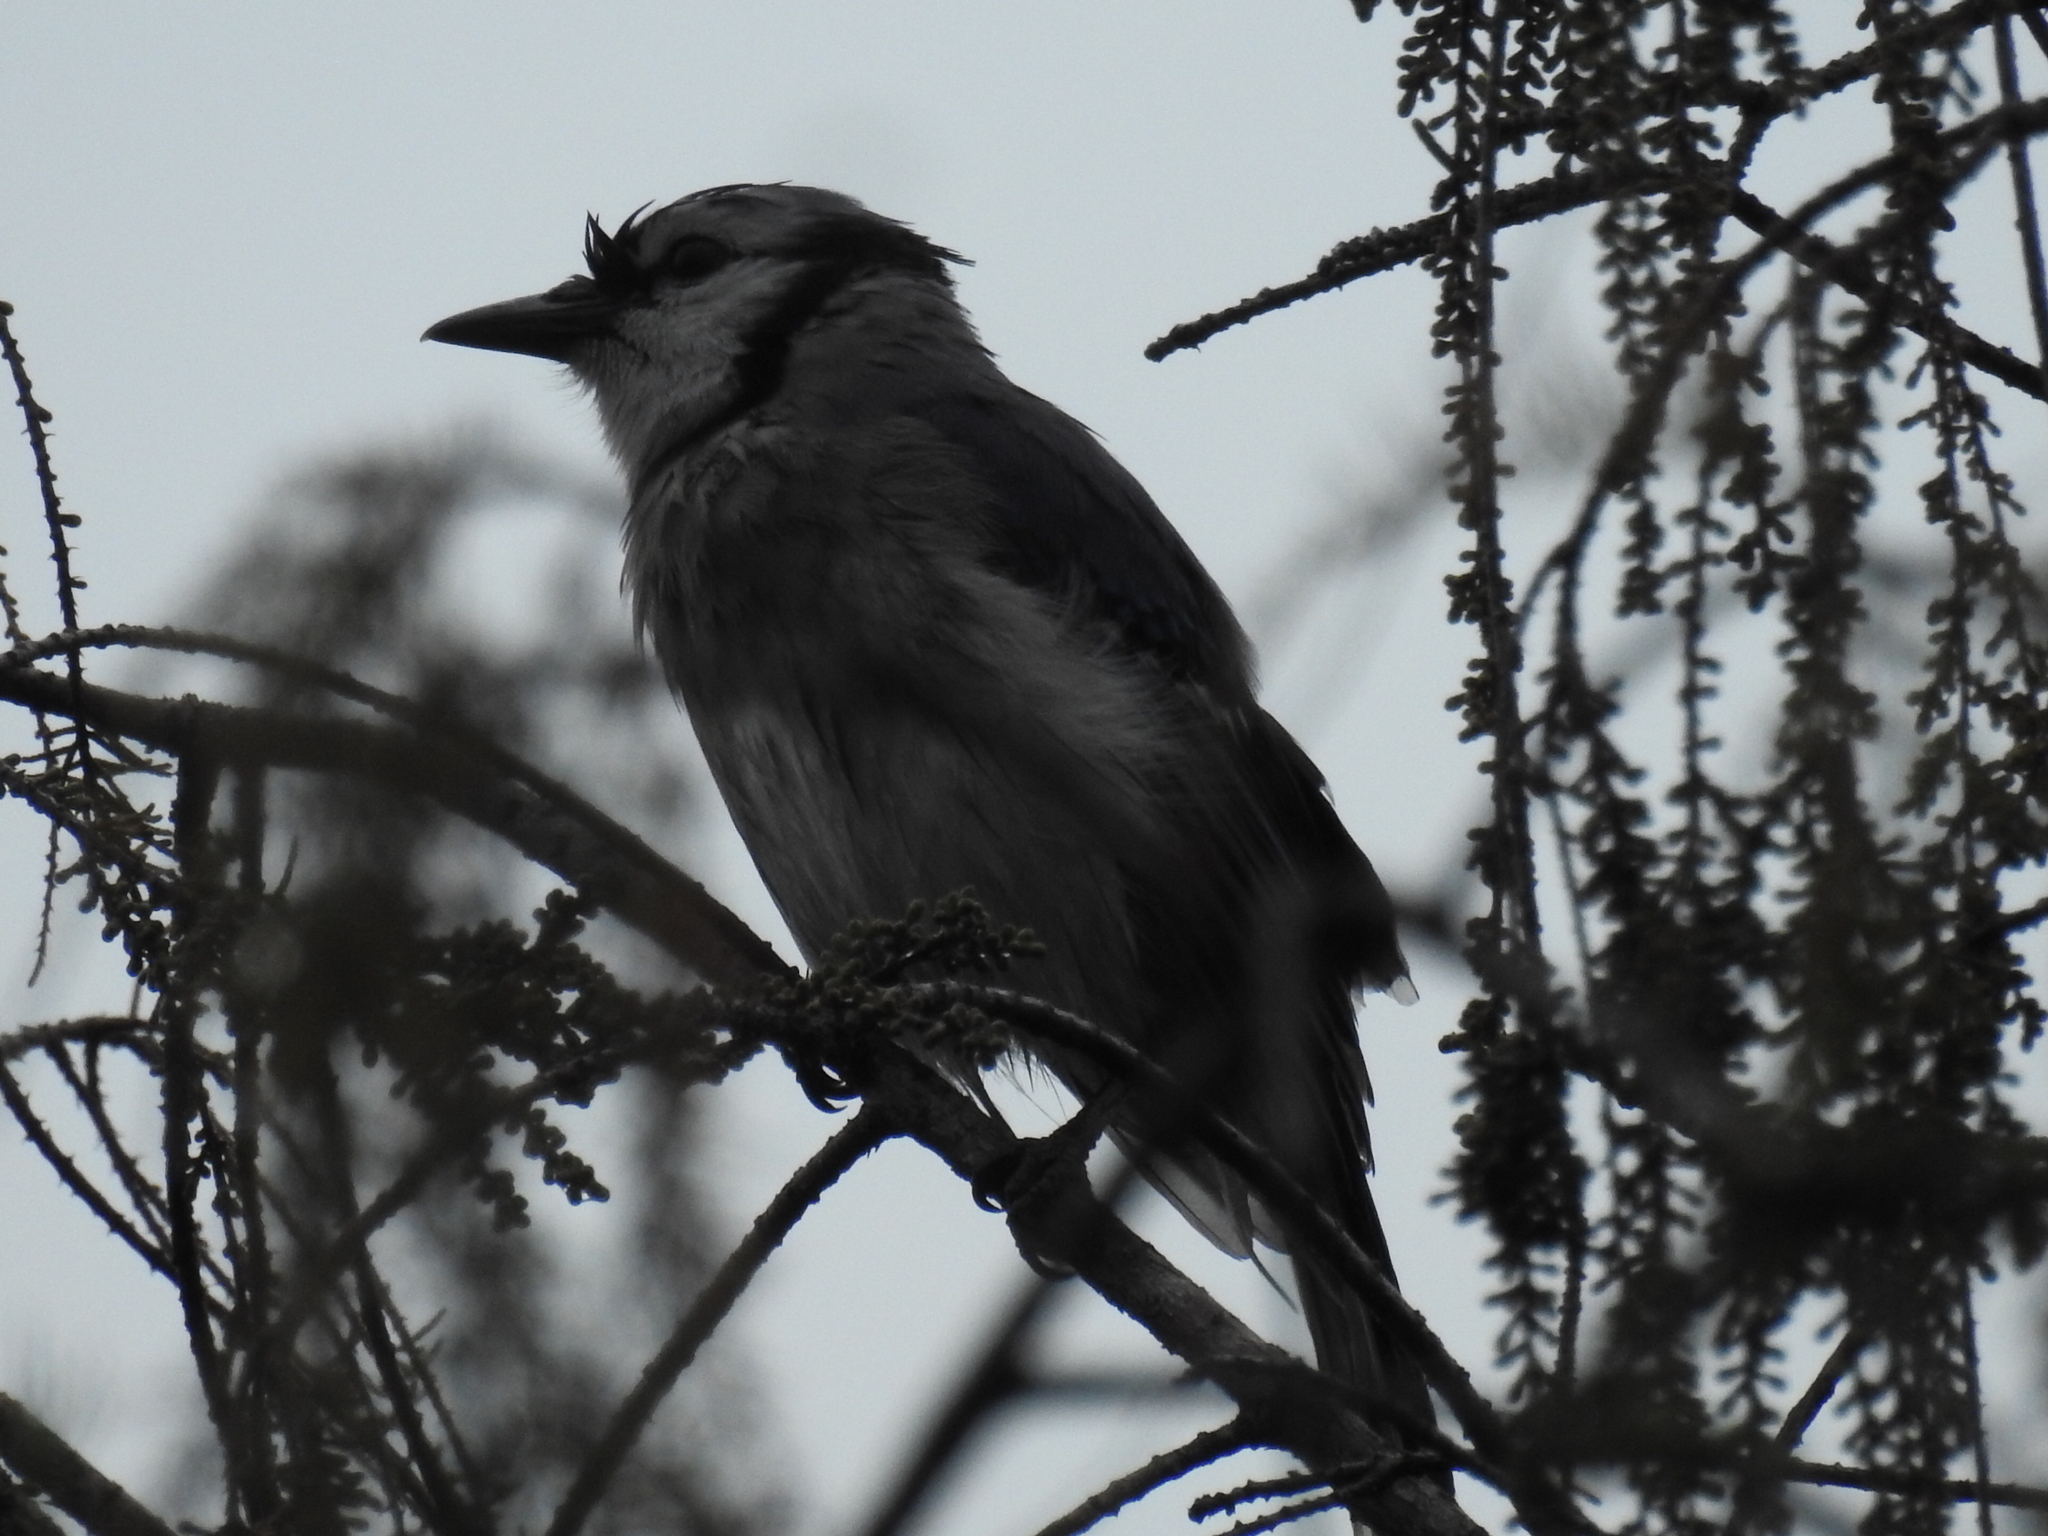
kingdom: Animalia
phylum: Chordata
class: Aves
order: Passeriformes
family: Corvidae
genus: Cyanocitta
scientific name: Cyanocitta cristata
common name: Blue jay
